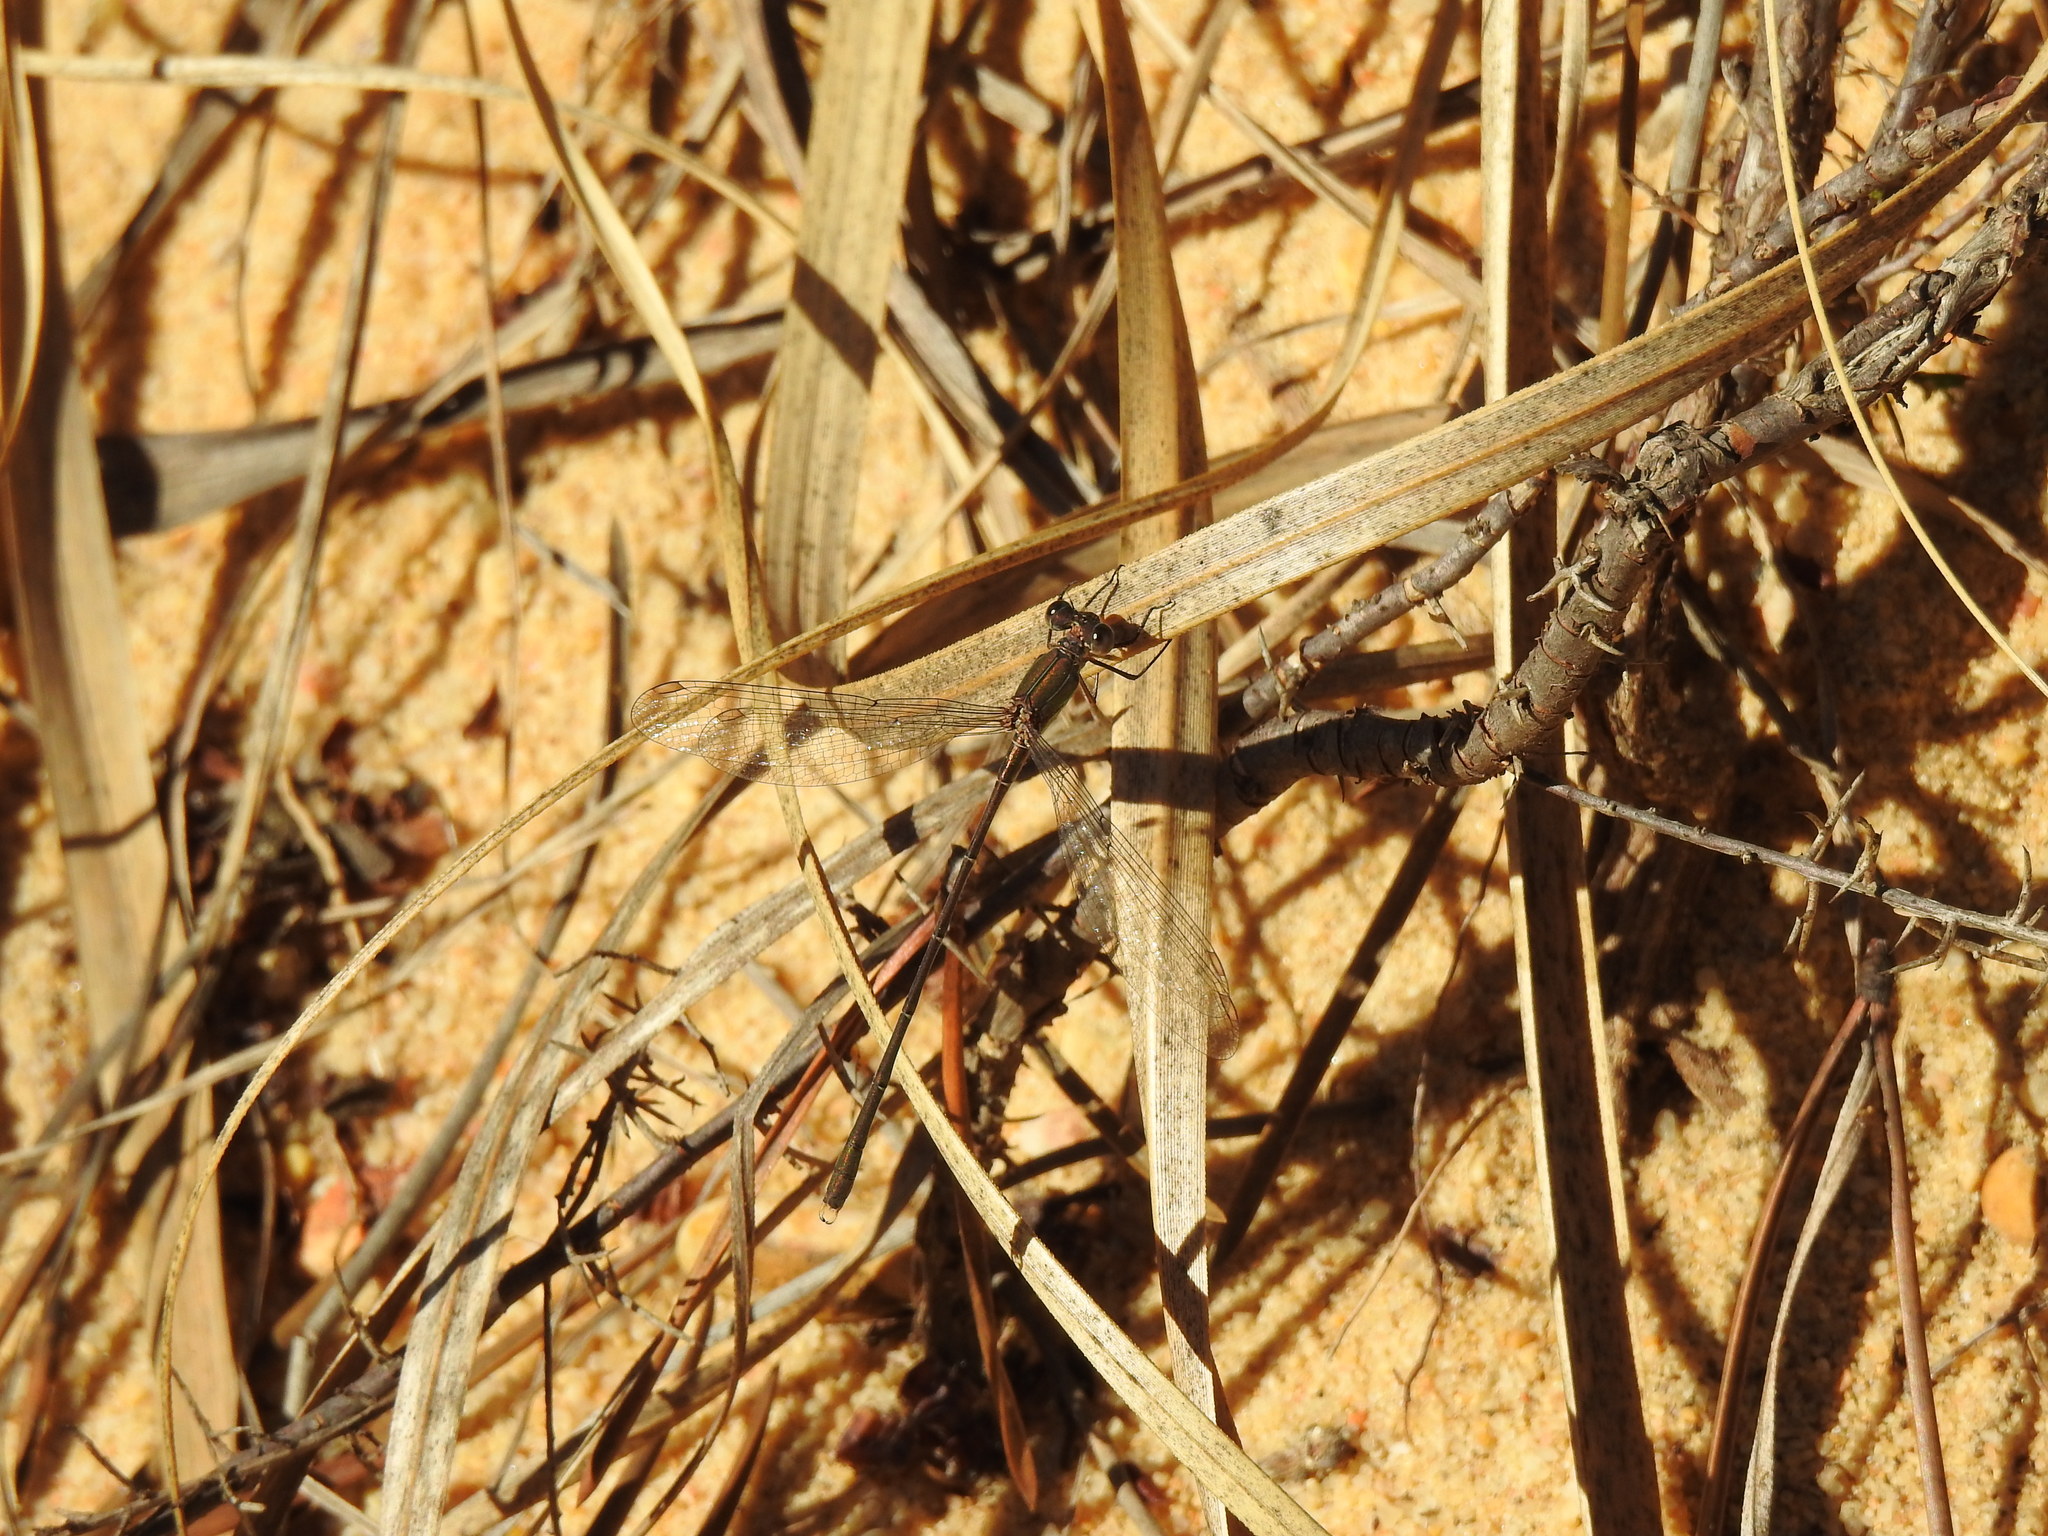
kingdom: Animalia
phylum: Arthropoda
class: Insecta
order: Odonata
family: Lestidae
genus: Chalcolestes
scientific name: Chalcolestes viridis
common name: Green emerald damselfly
